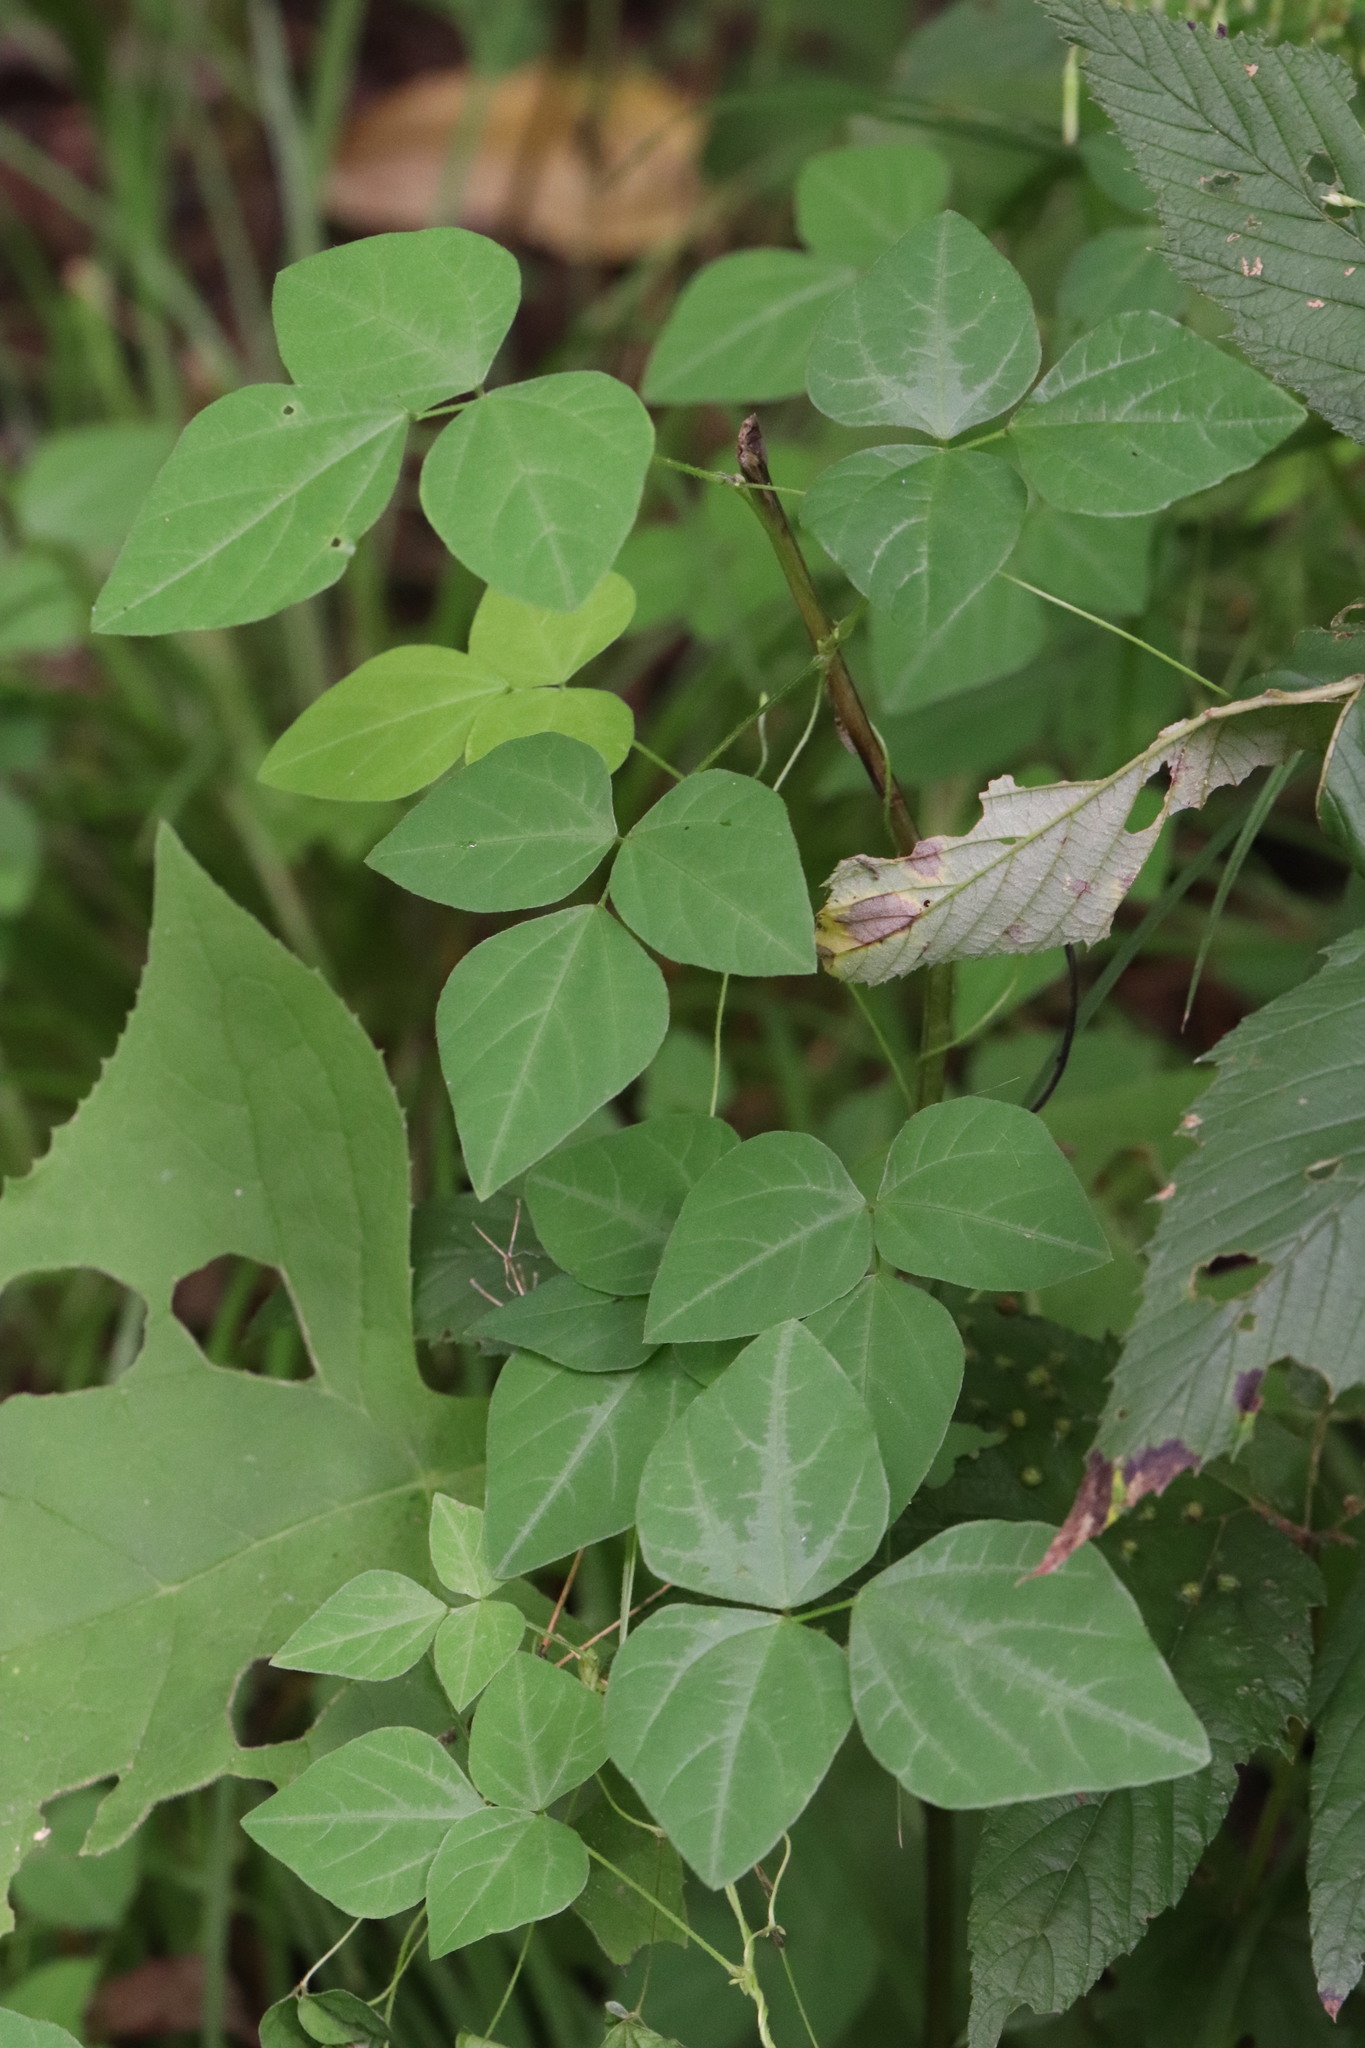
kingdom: Plantae
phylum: Tracheophyta
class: Magnoliopsida
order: Fabales
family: Fabaceae
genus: Amphicarpaea
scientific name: Amphicarpaea edgeworthii
